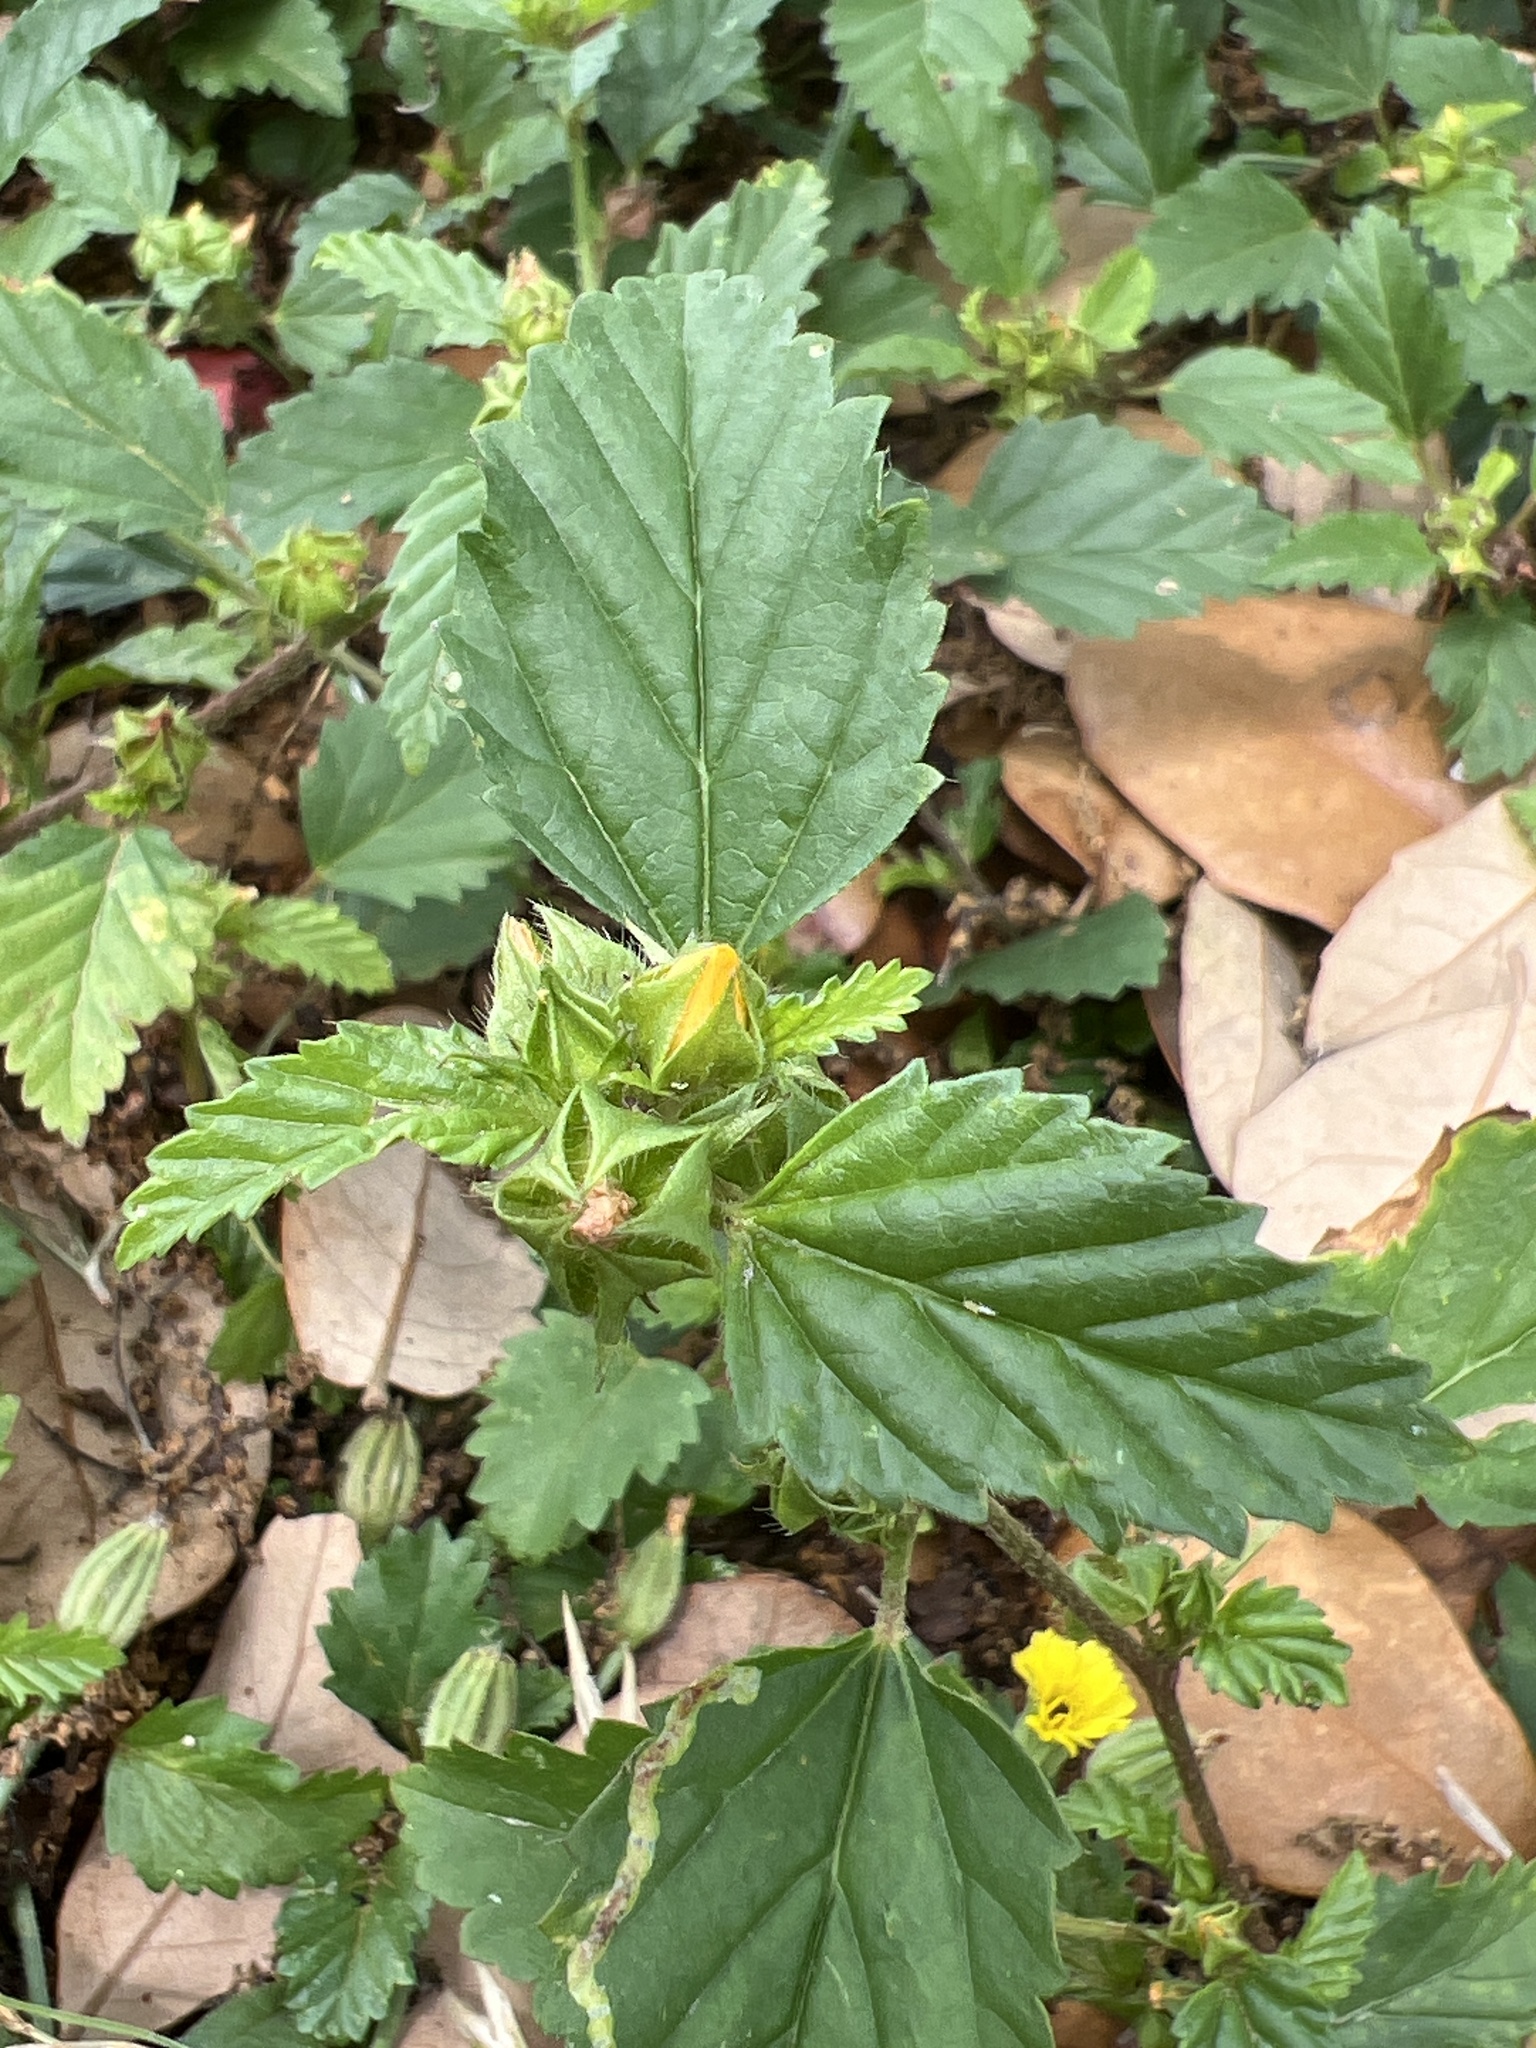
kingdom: Plantae
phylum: Tracheophyta
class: Magnoliopsida
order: Malvales
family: Malvaceae
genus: Malvastrum
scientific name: Malvastrum coromandelianum
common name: Threelobe false mallow
